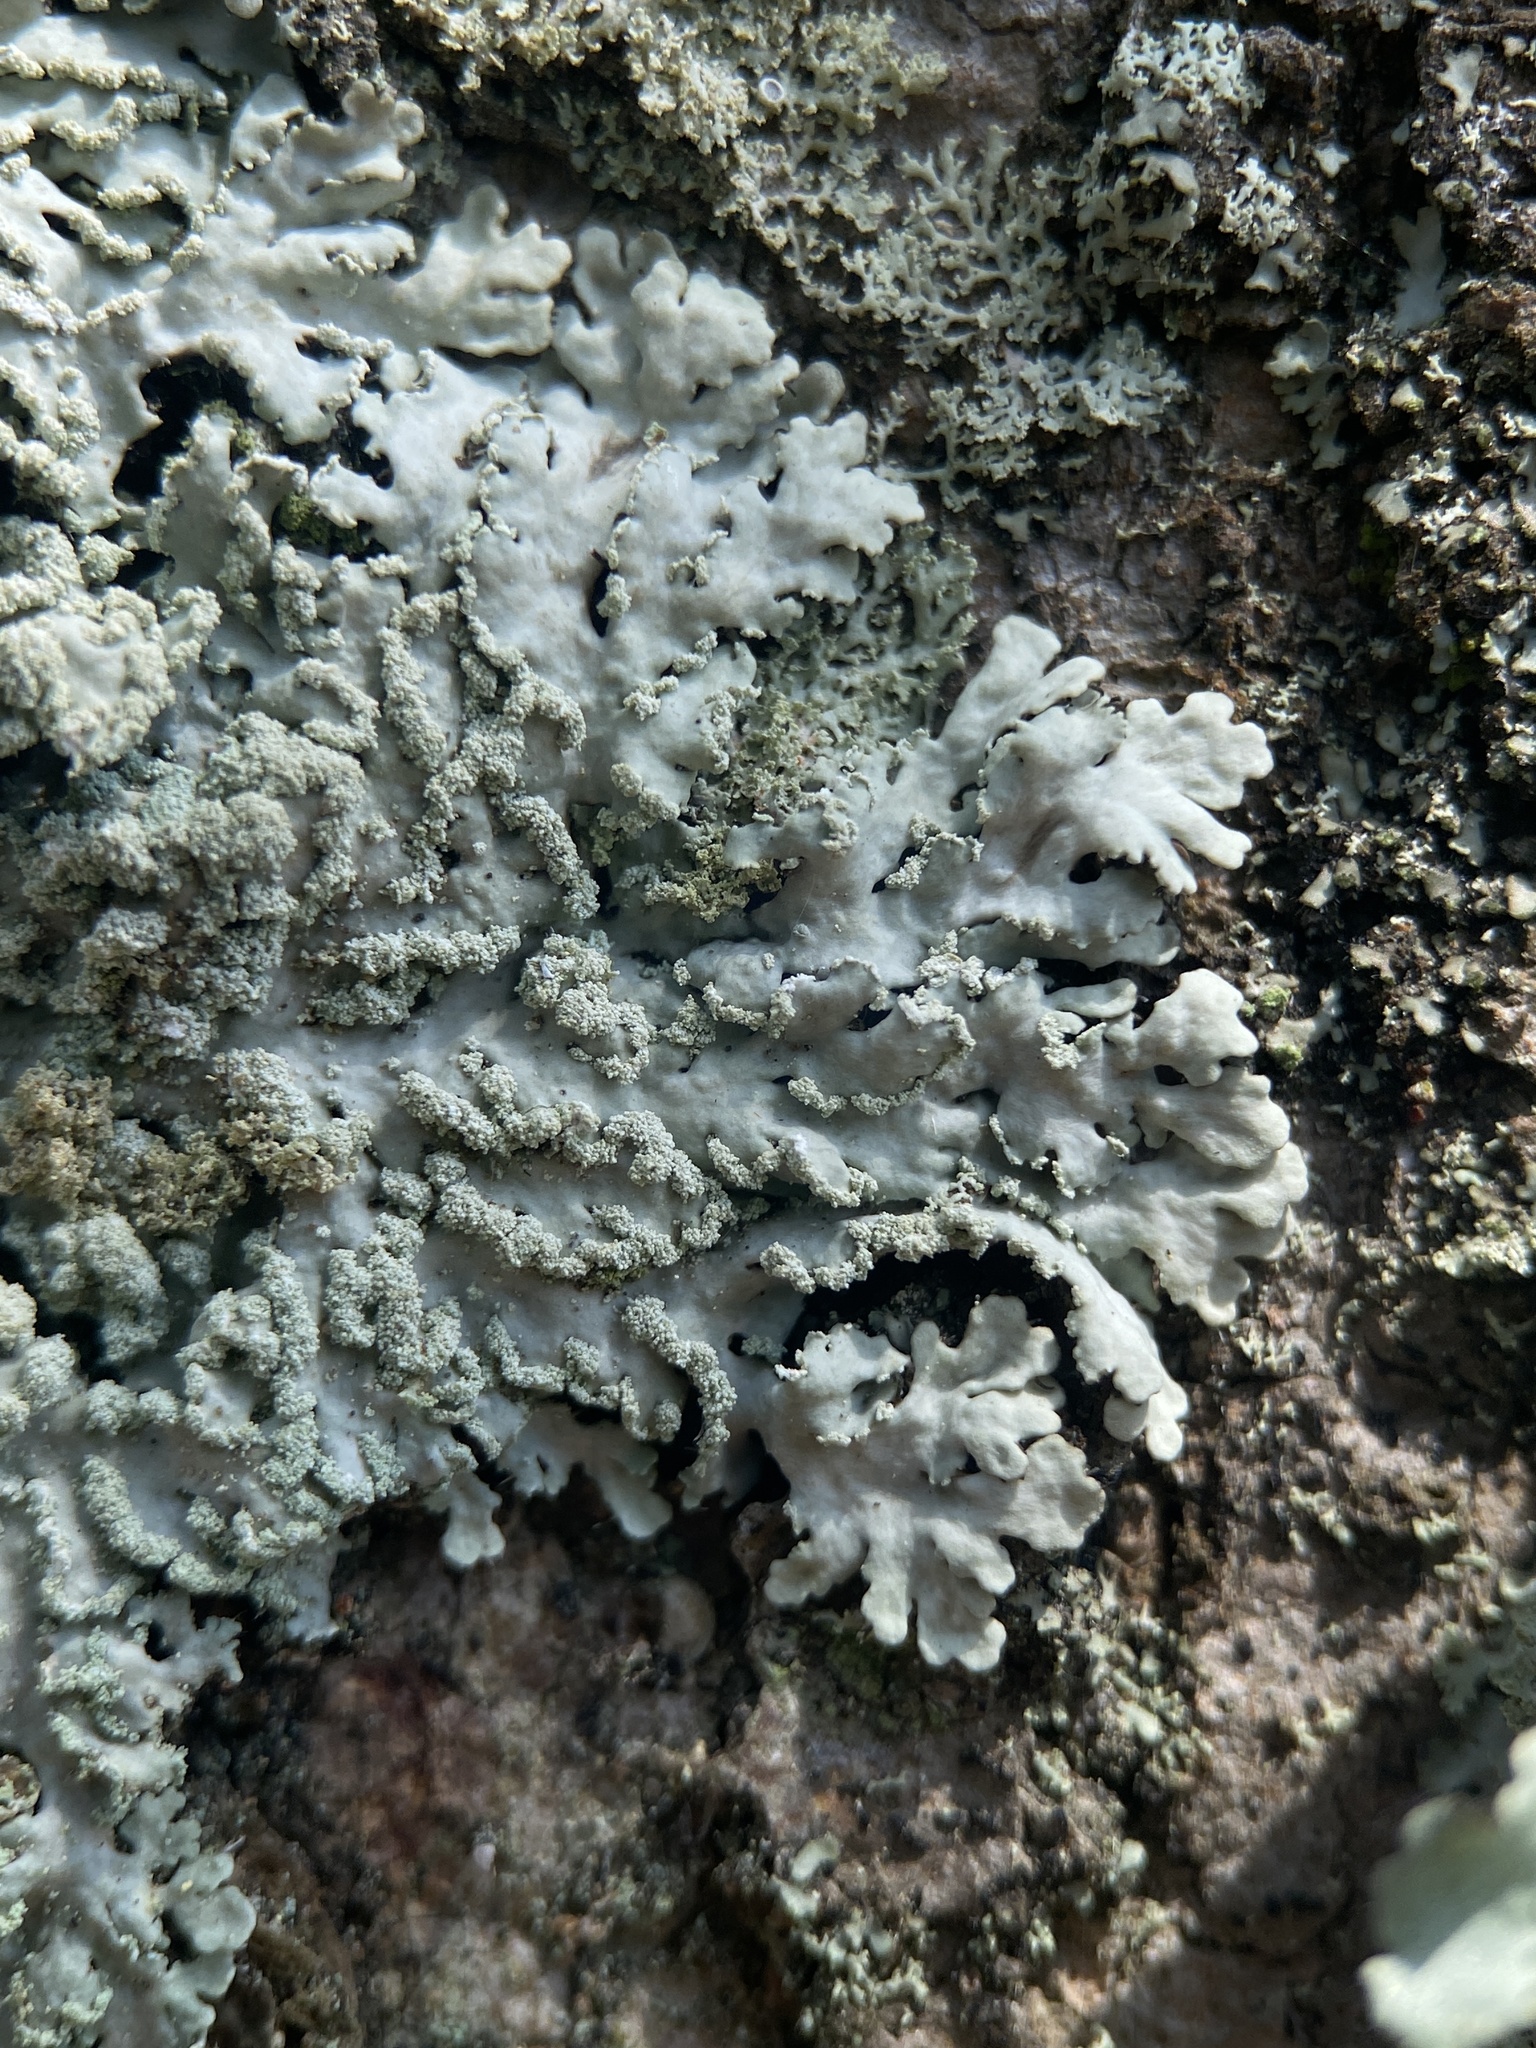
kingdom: Fungi
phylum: Ascomycota
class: Lecanoromycetes
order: Caliciales
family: Physciaceae
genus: Polyblastidium
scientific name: Polyblastidium albicans
